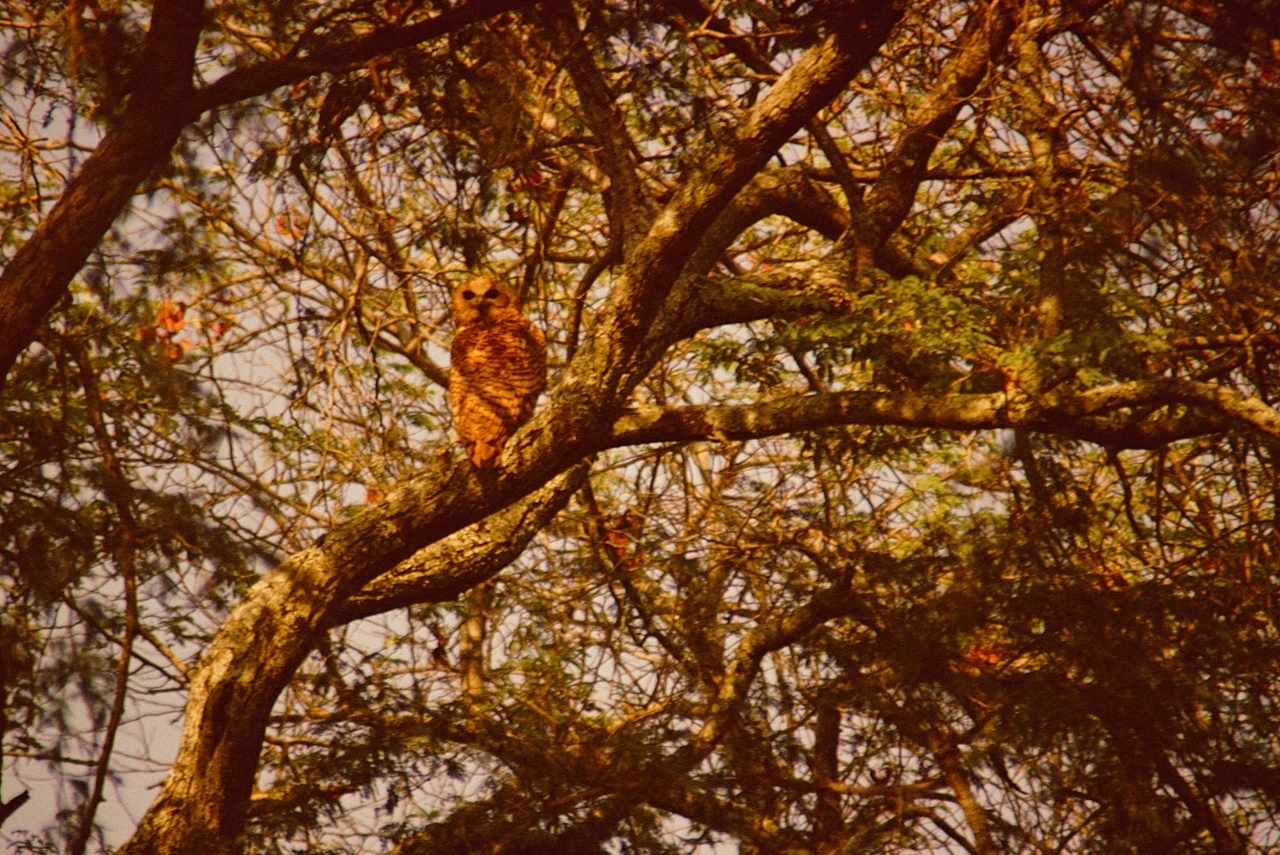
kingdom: Animalia
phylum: Chordata
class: Aves
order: Strigiformes
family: Strigidae
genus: Scotopelia
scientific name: Scotopelia peli
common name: Pel's fishing owl
